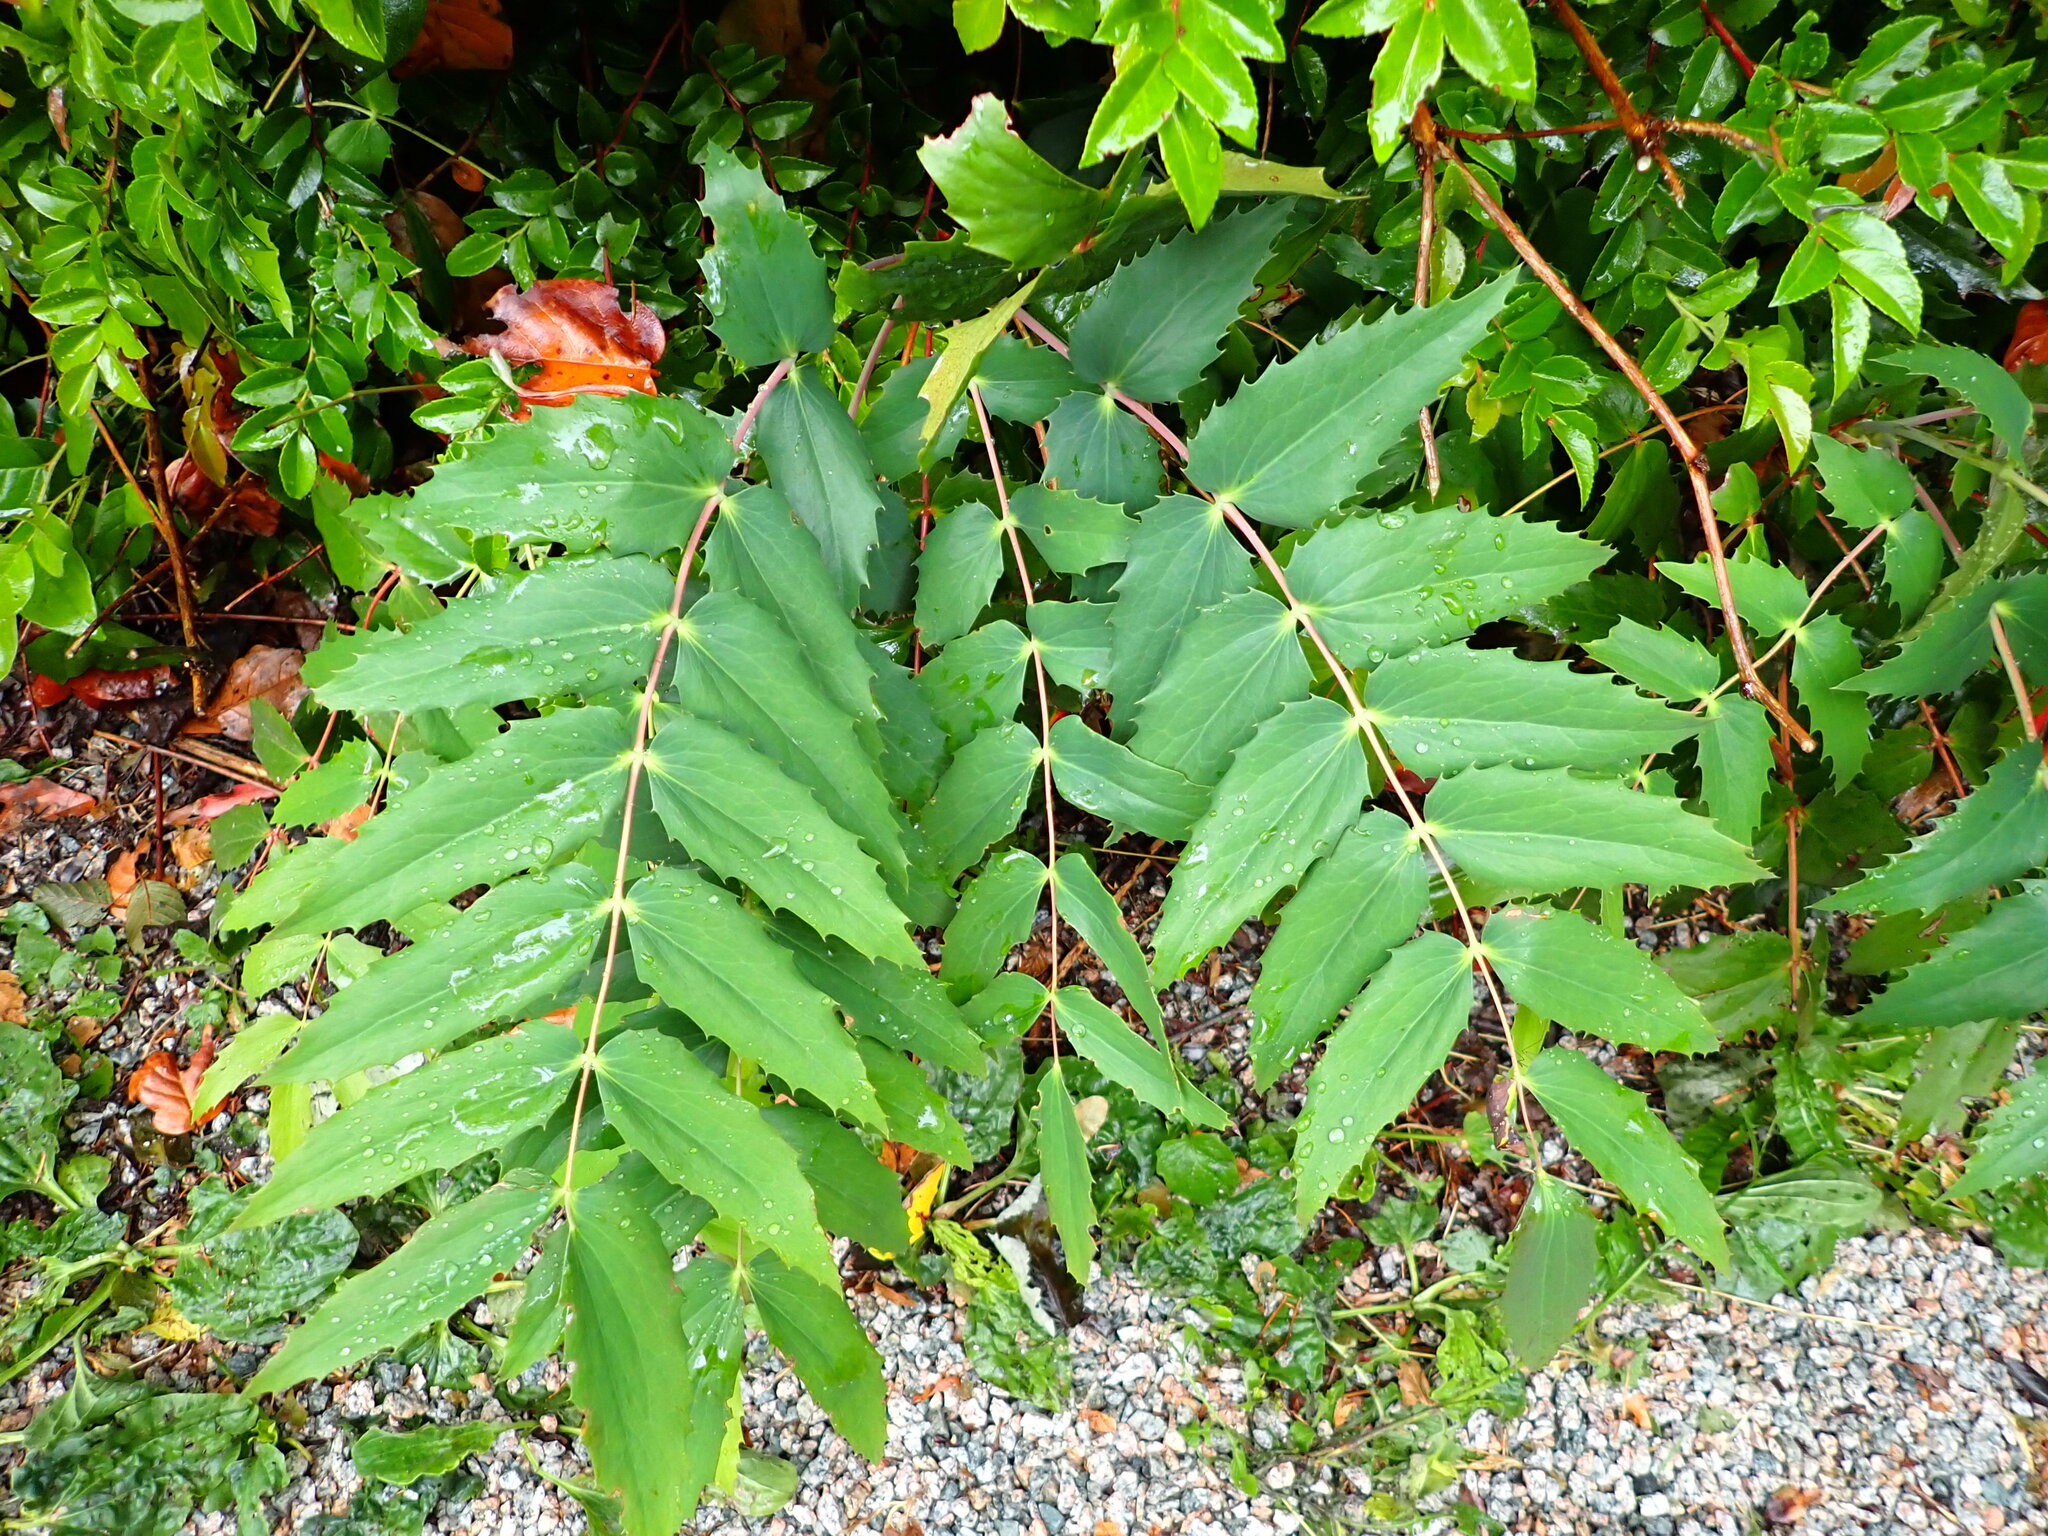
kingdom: Plantae
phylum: Tracheophyta
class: Magnoliopsida
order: Ranunculales
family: Berberidaceae
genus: Mahonia
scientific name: Mahonia nervosa
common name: Cascade oregon-grape
